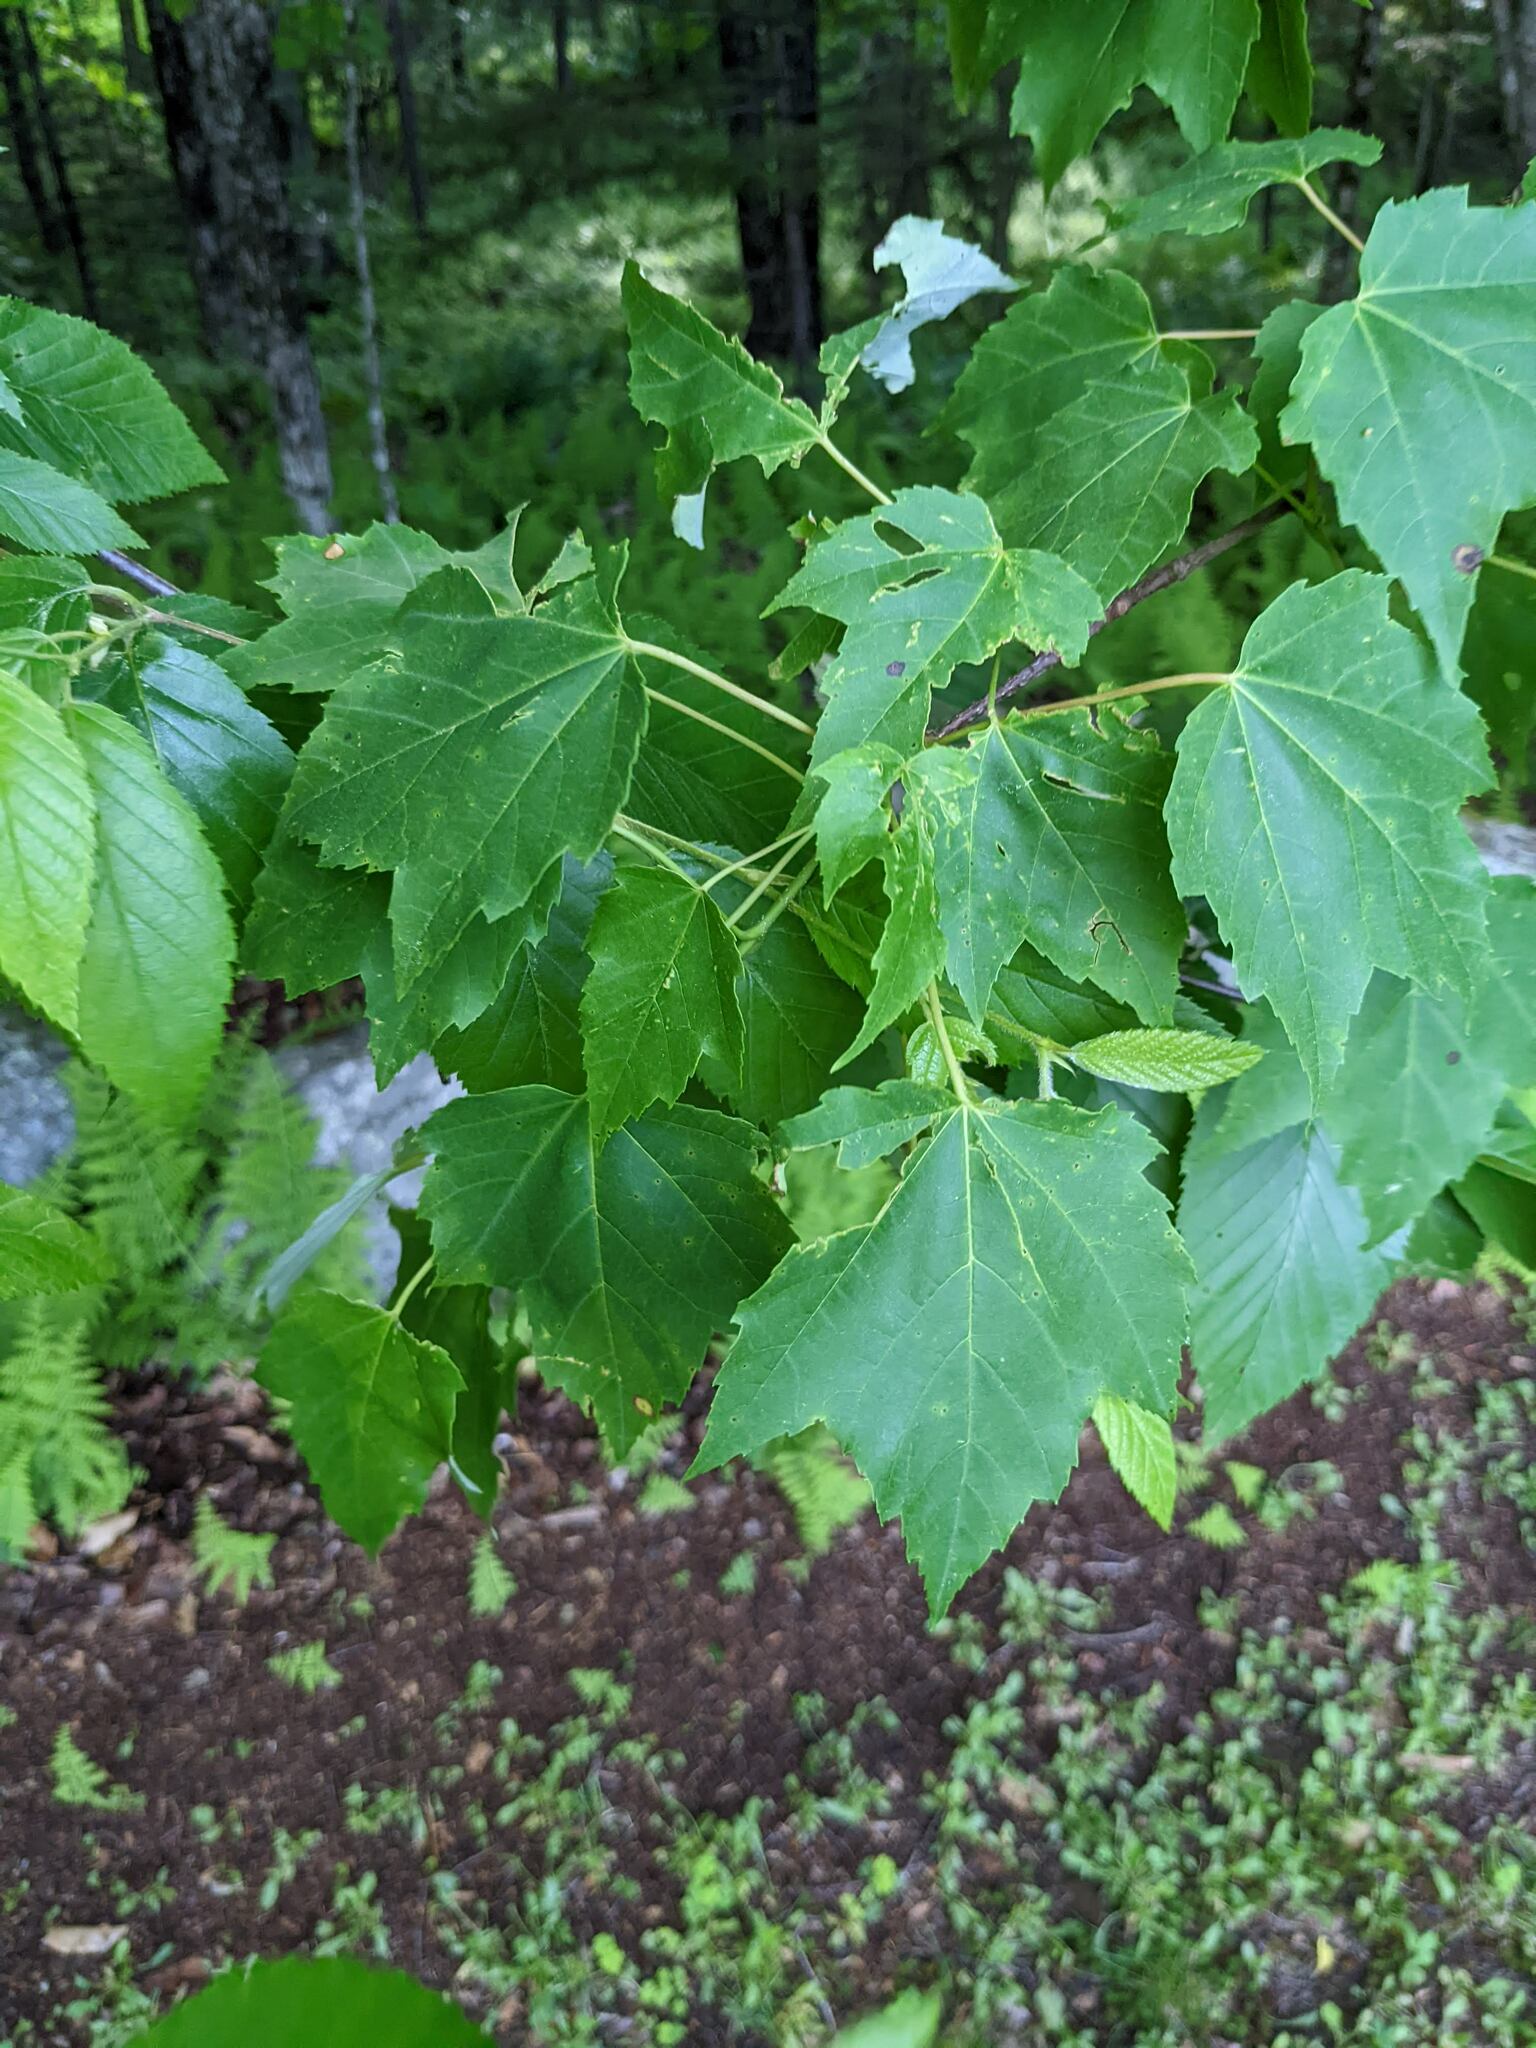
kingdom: Plantae
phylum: Tracheophyta
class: Magnoliopsida
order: Sapindales
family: Sapindaceae
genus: Acer
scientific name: Acer rubrum
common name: Red maple
